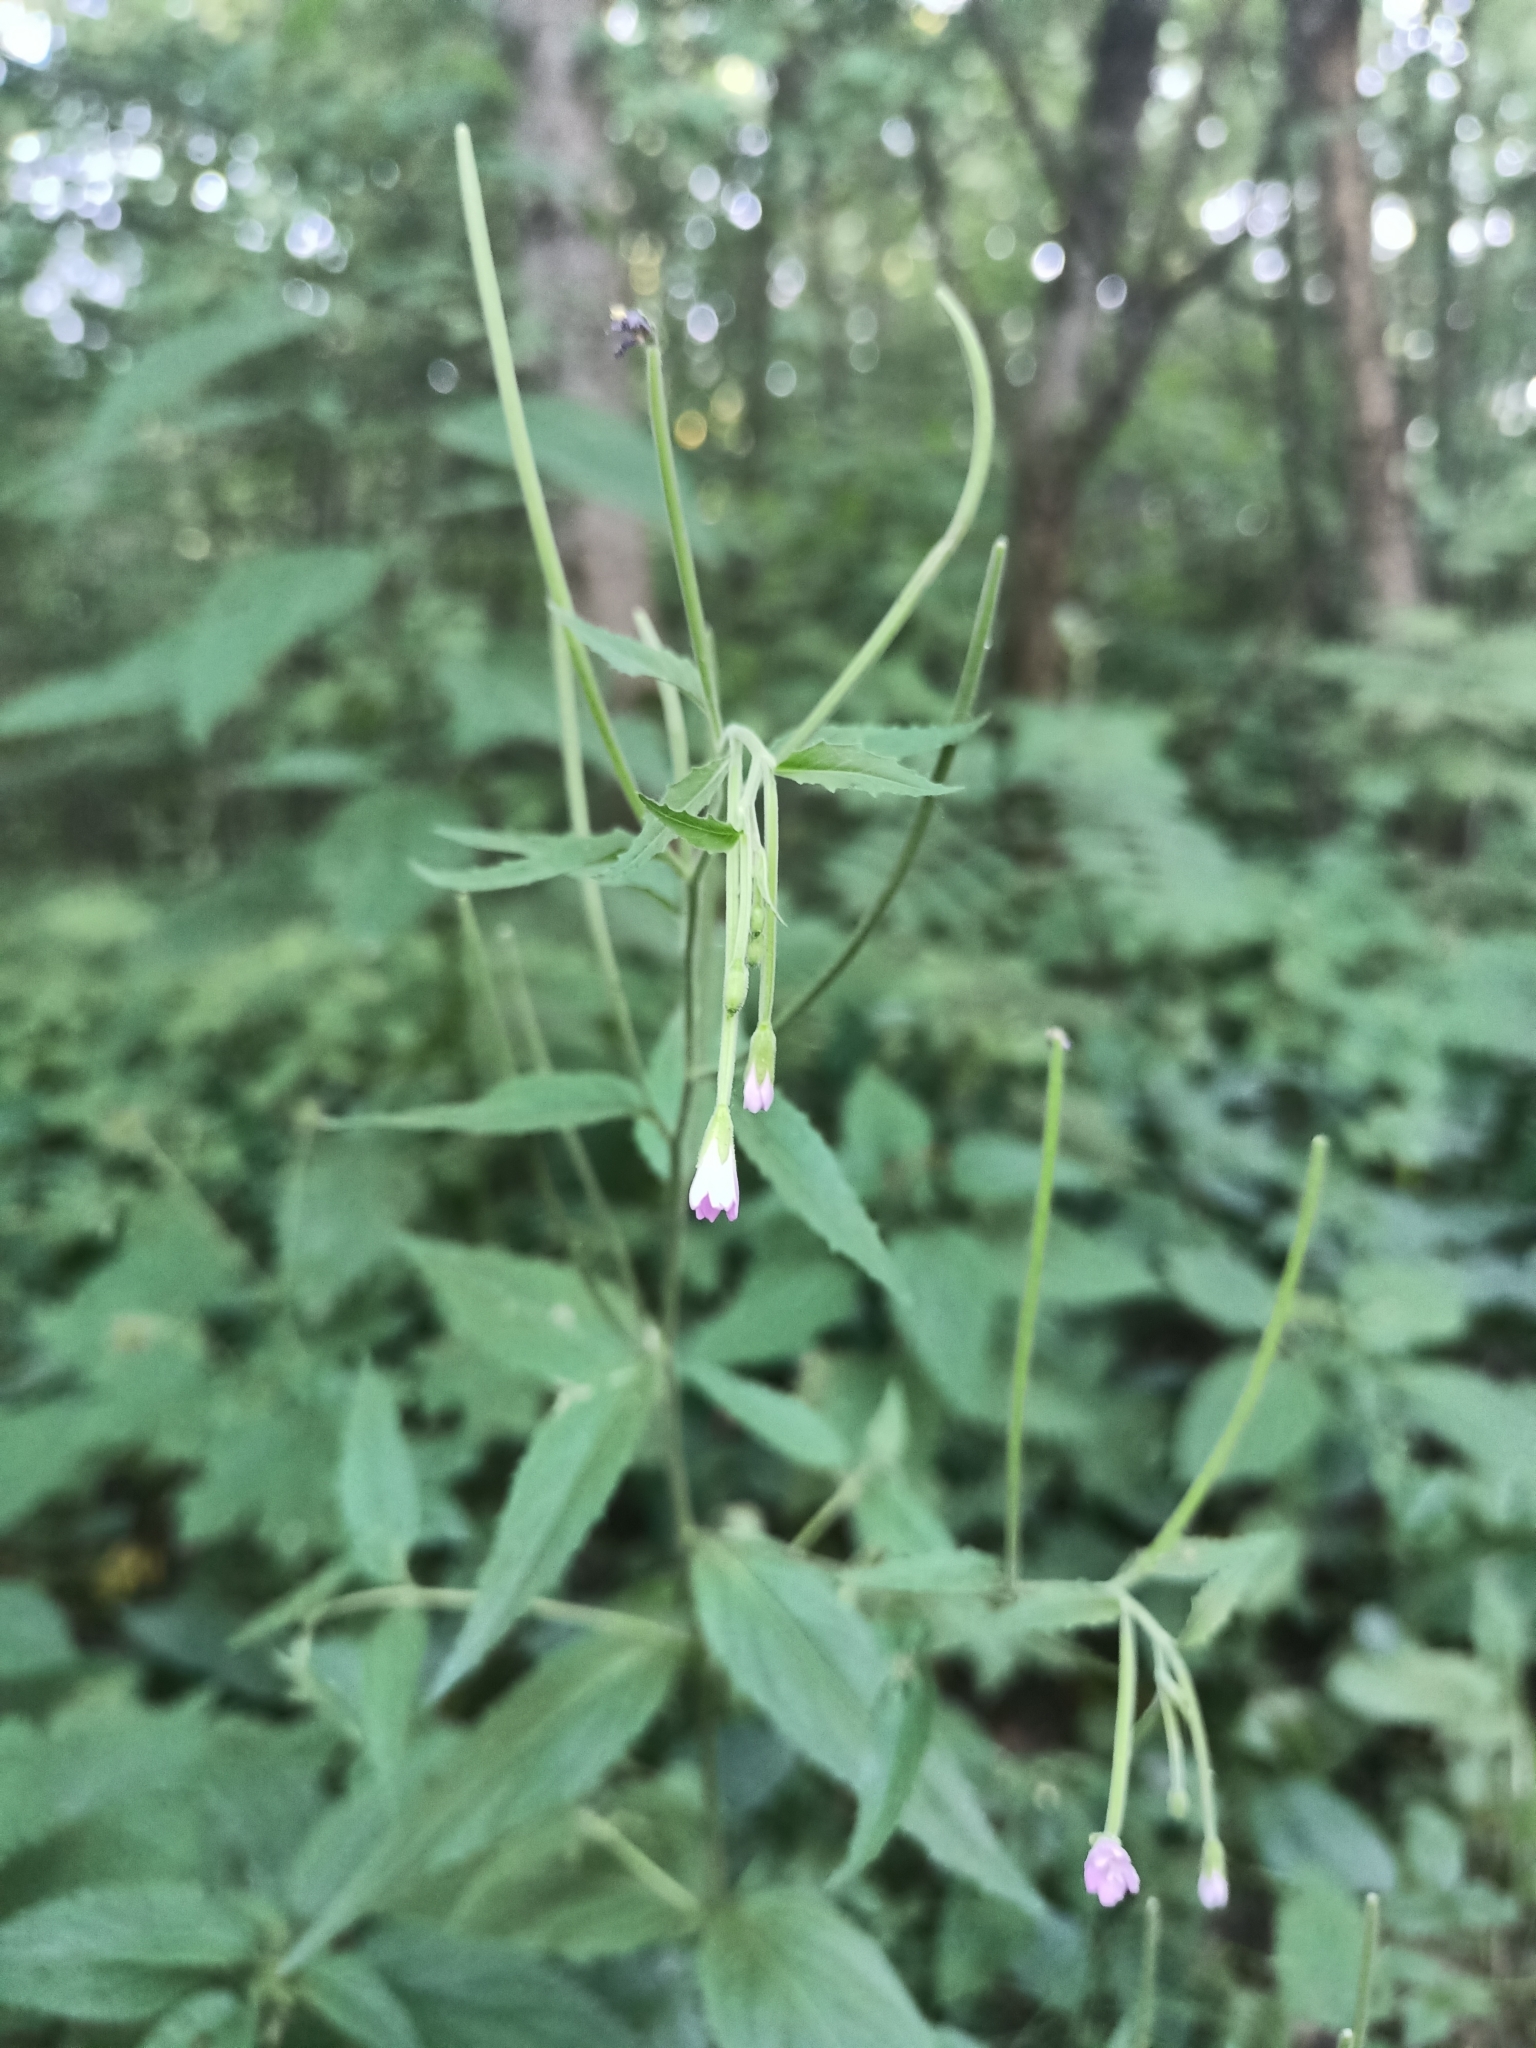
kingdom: Plantae
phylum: Tracheophyta
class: Magnoliopsida
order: Myrtales
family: Onagraceae
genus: Epilobium
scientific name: Epilobium montanum
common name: Broad-leaved willowherb
